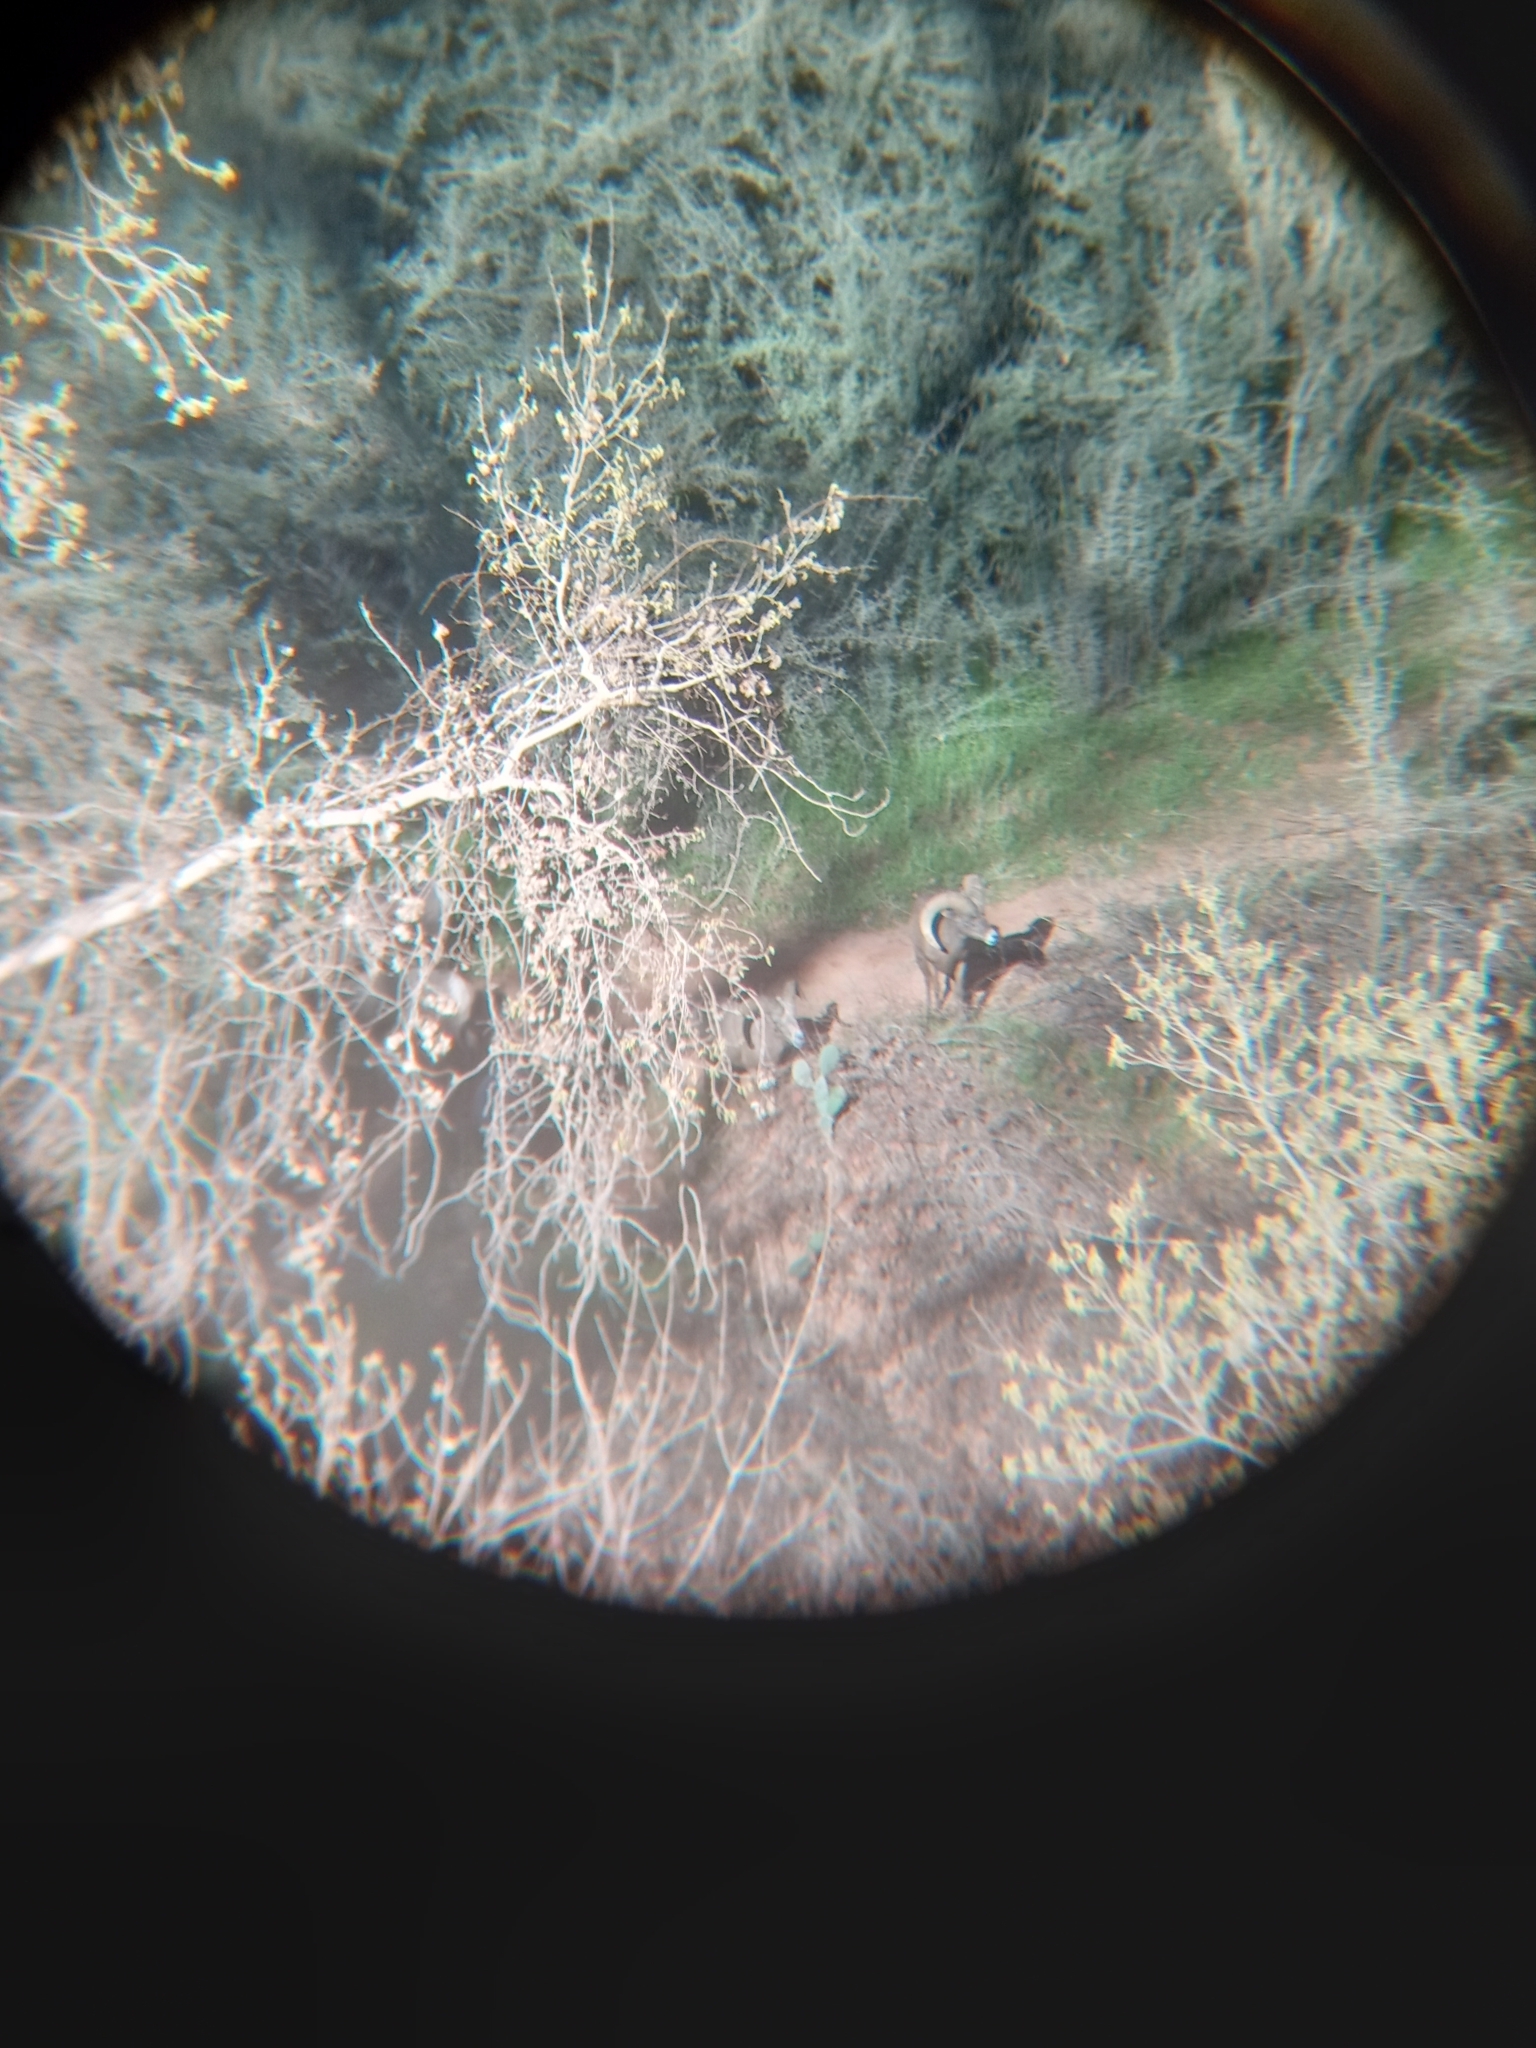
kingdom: Animalia
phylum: Chordata
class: Mammalia
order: Artiodactyla
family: Bovidae
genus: Ovis
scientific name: Ovis canadensis
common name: Bighorn sheep
